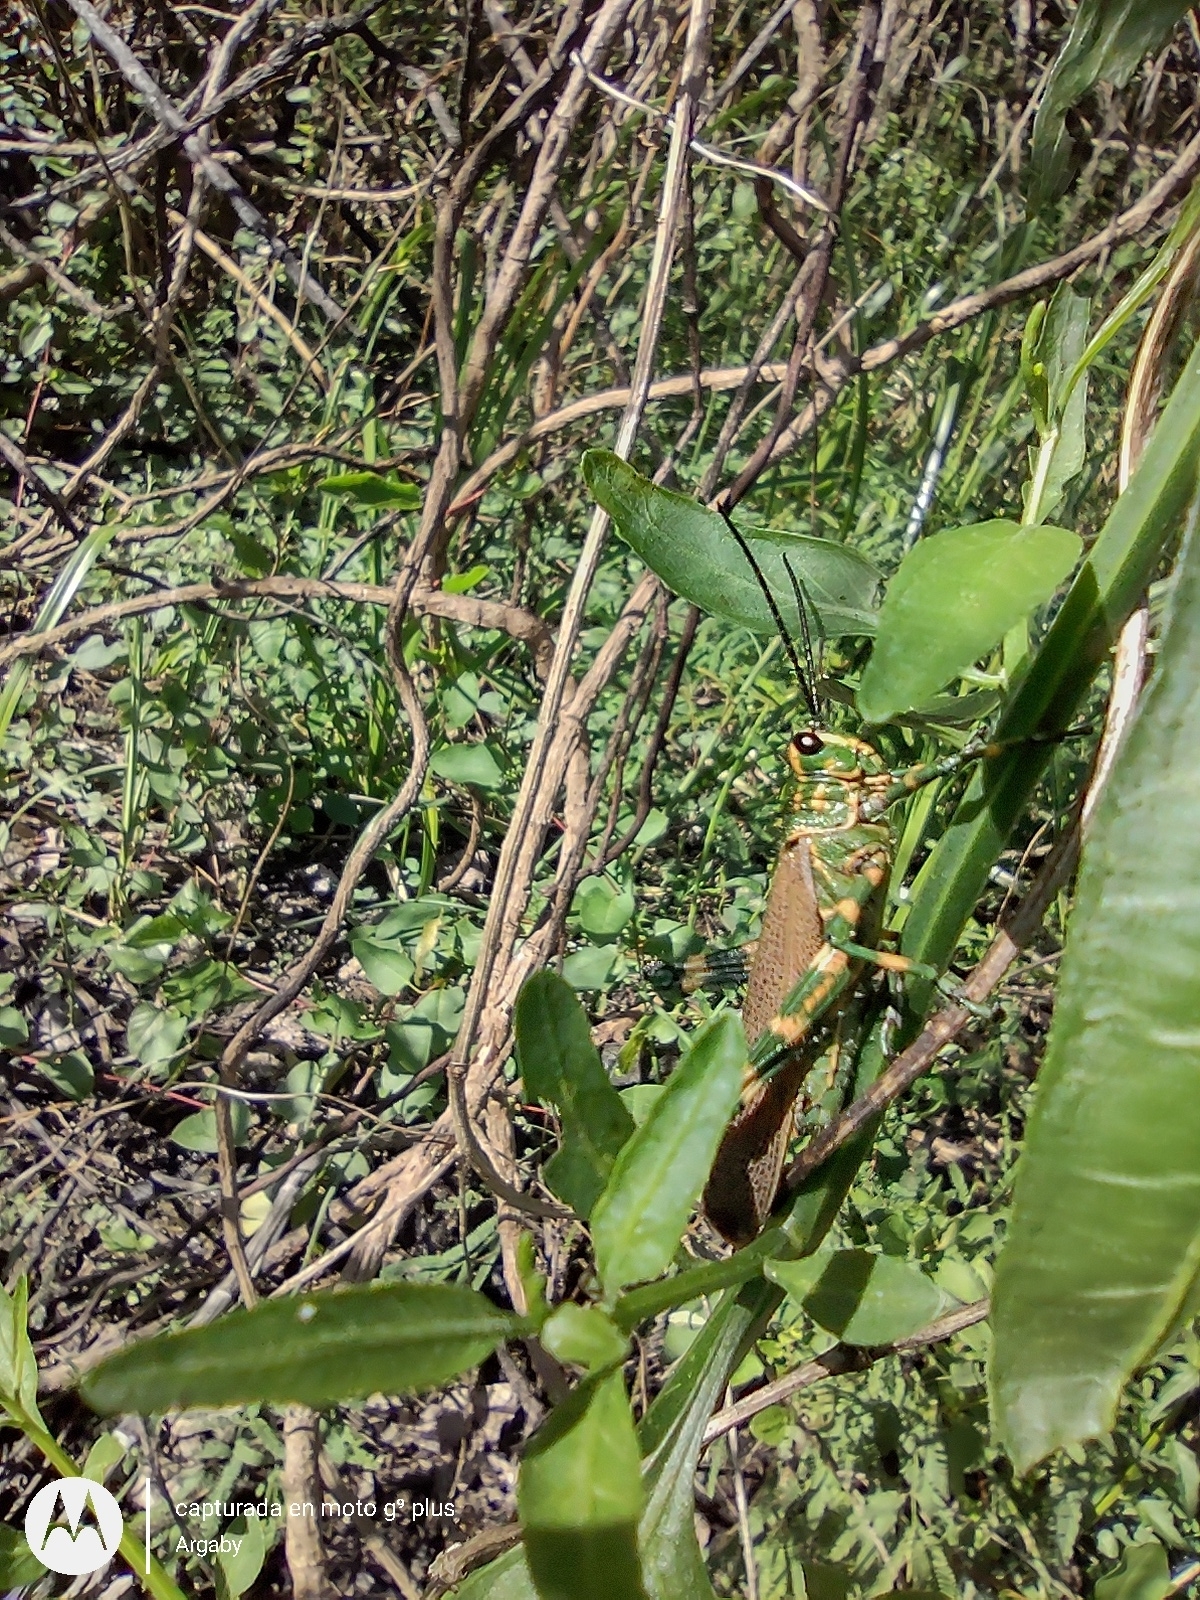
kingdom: Animalia
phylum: Arthropoda
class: Insecta
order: Orthoptera
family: Romaleidae
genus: Chromacris
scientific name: Chromacris speciosa
